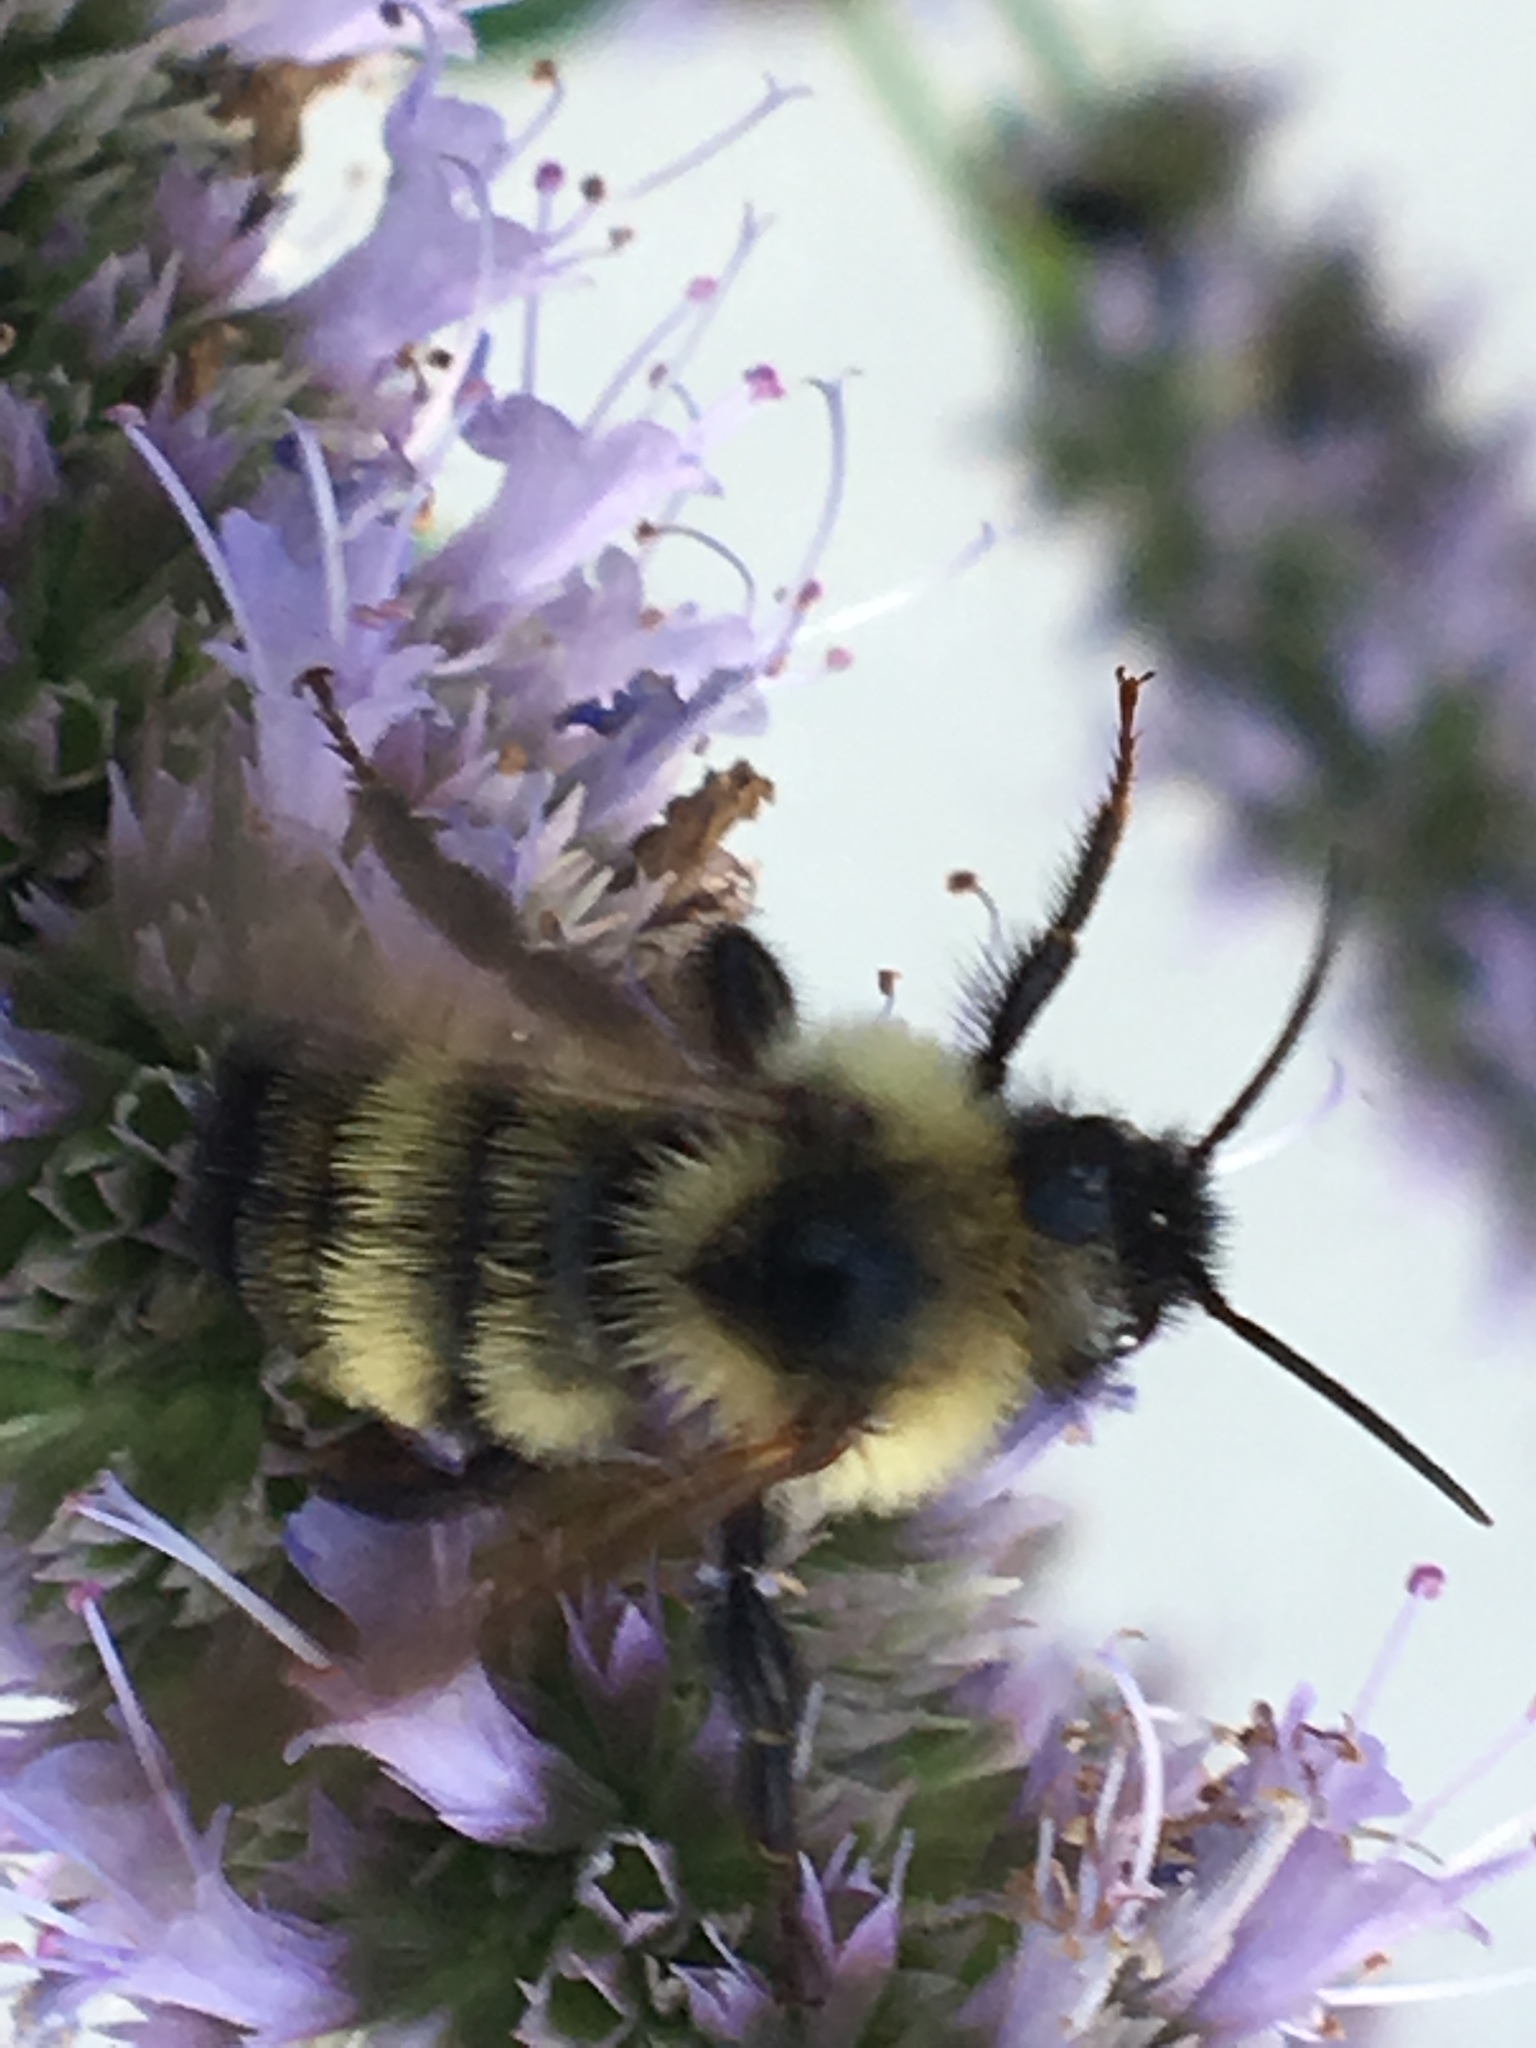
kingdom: Animalia
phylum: Arthropoda
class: Insecta
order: Hymenoptera
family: Apidae
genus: Bombus
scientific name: Bombus citrinus
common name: Lemon cuckoo bumble bee
